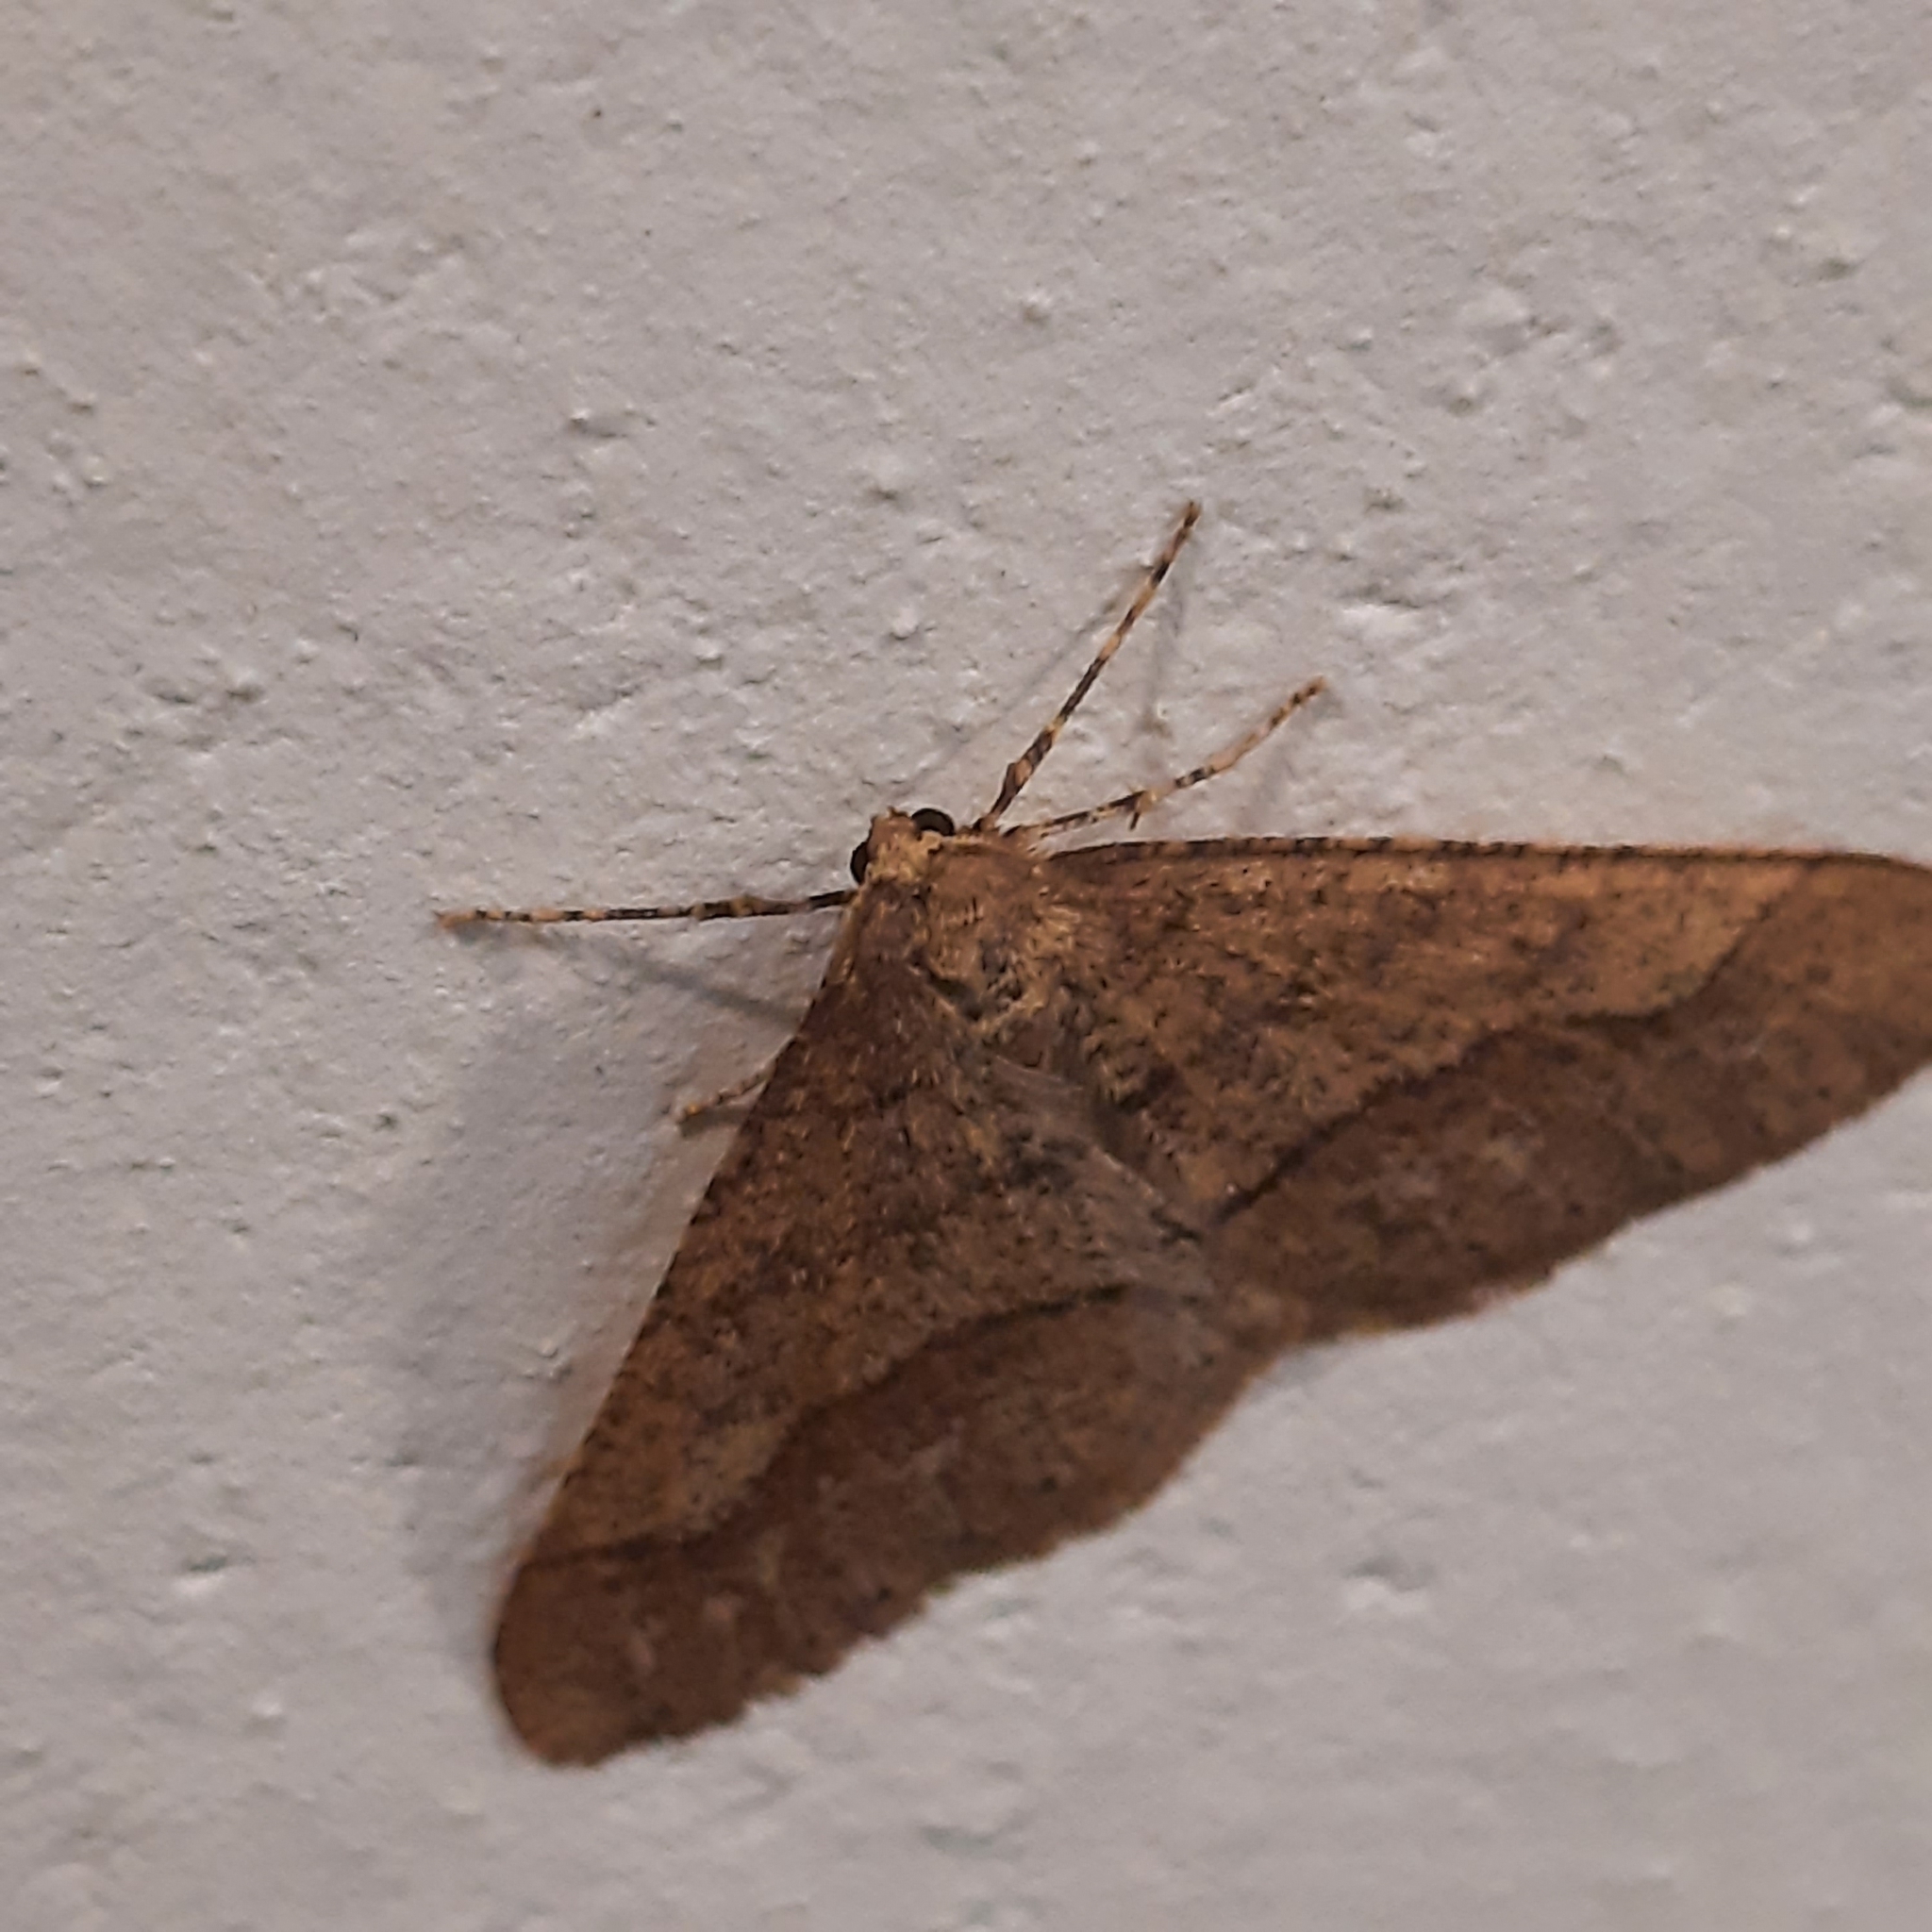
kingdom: Animalia
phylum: Arthropoda
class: Insecta
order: Lepidoptera
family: Geometridae
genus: Agriopis
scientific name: Agriopis marginaria
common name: Dotted border
